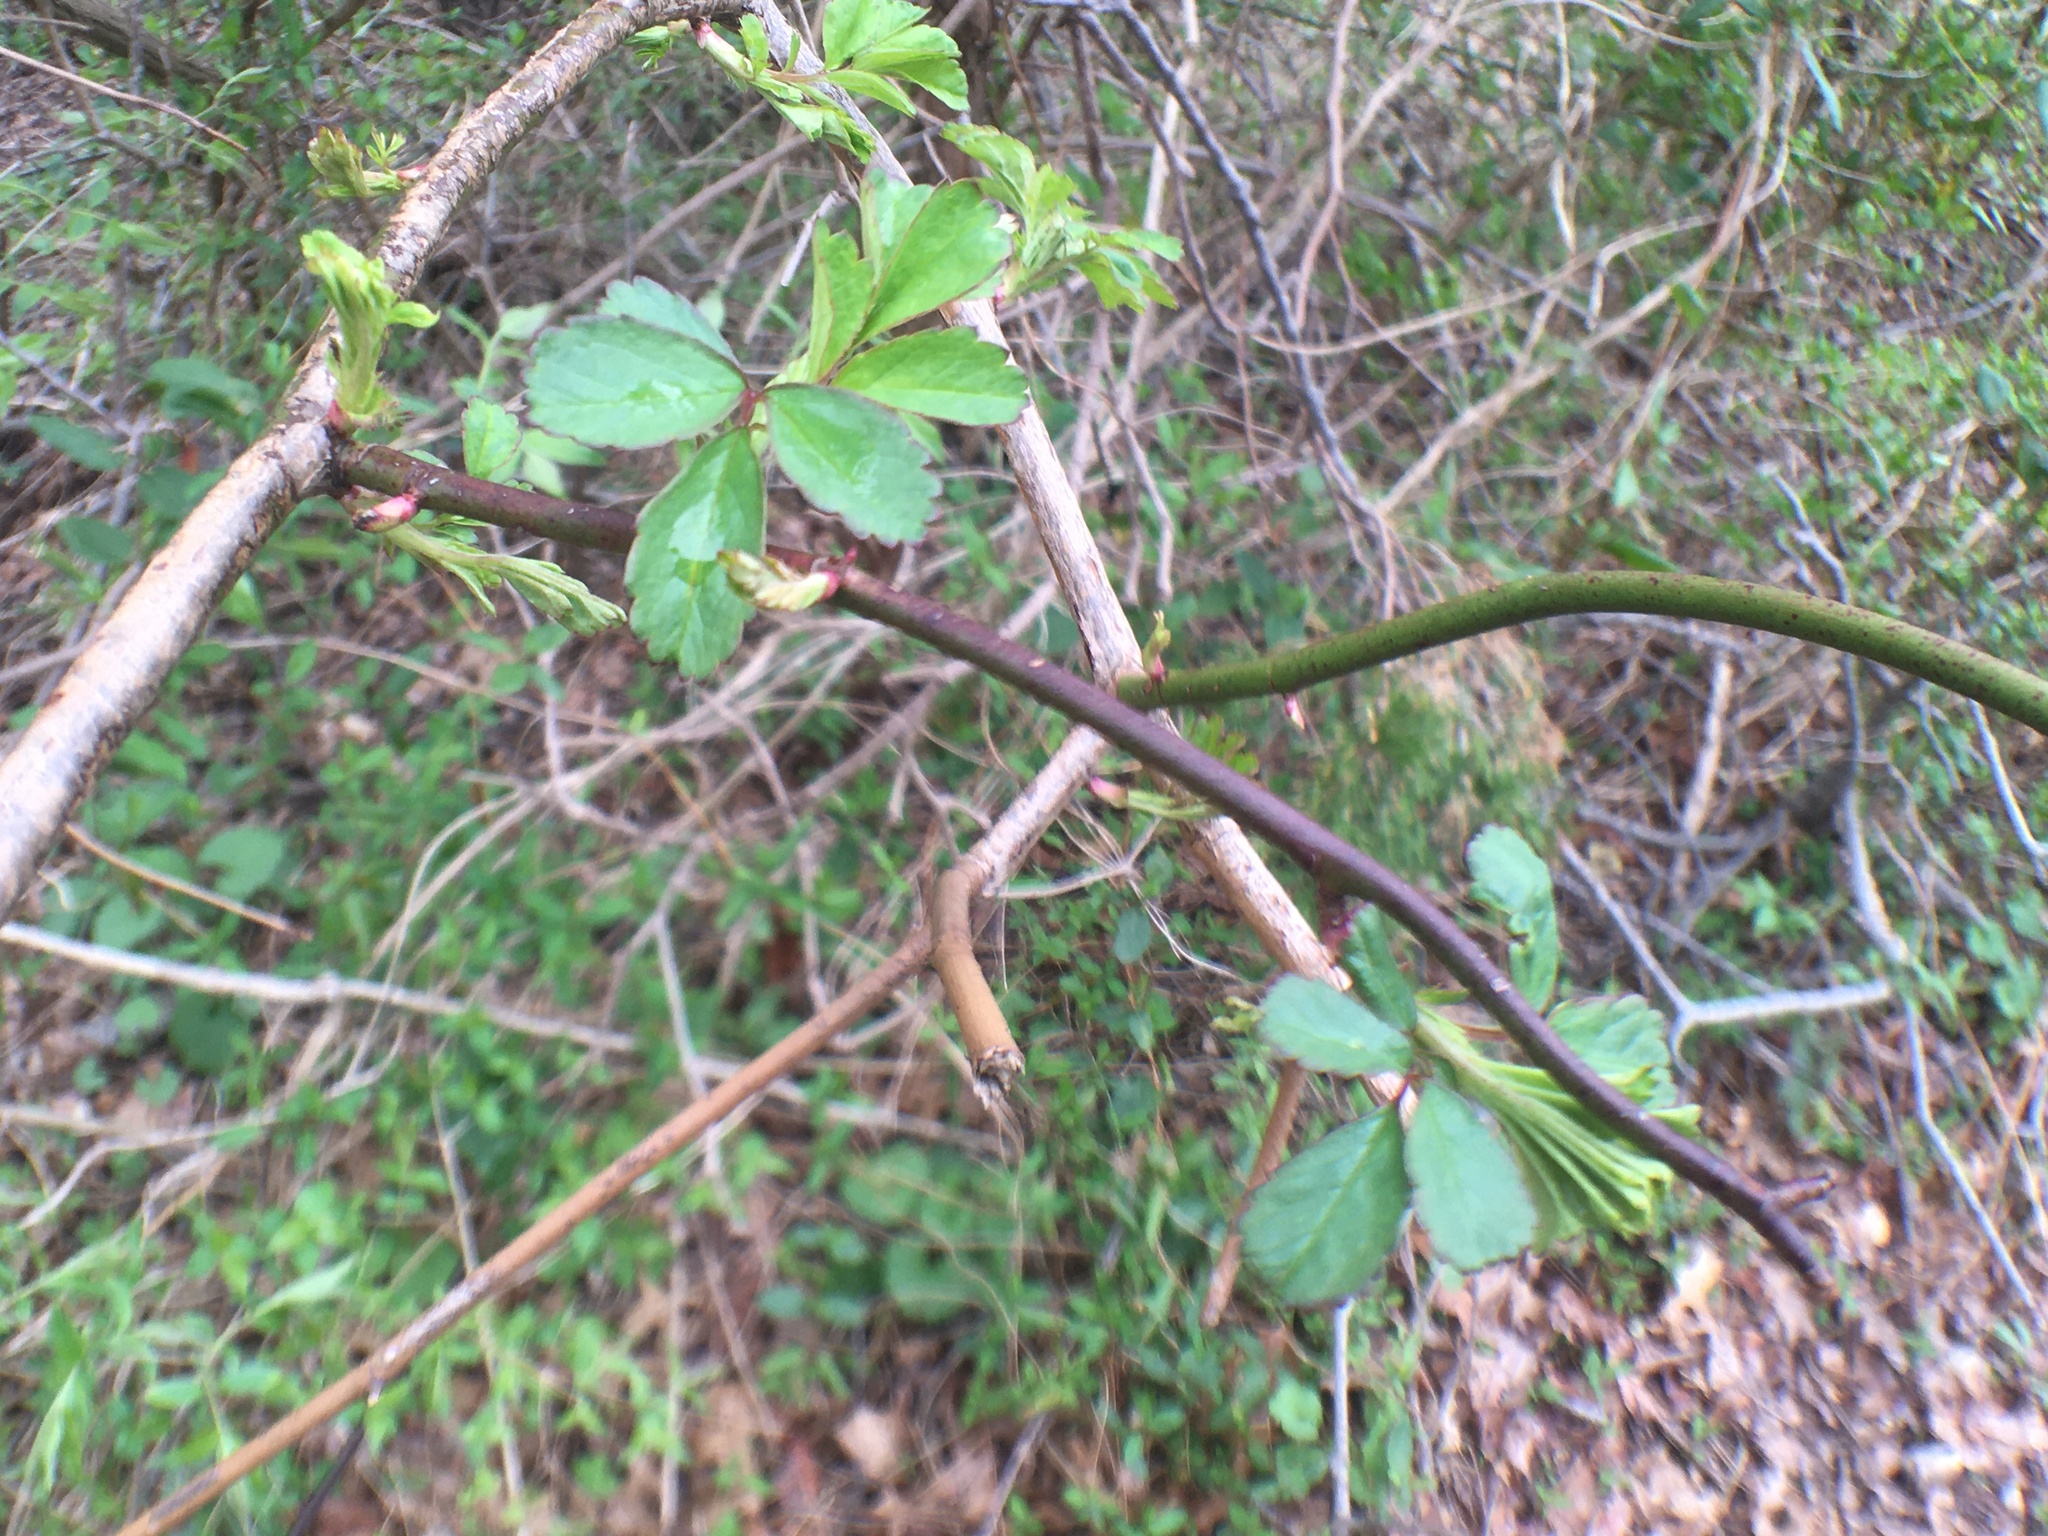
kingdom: Plantae
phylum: Tracheophyta
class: Magnoliopsida
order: Rosales
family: Rosaceae
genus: Rosa
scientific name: Rosa multiflora
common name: Multiflora rose
